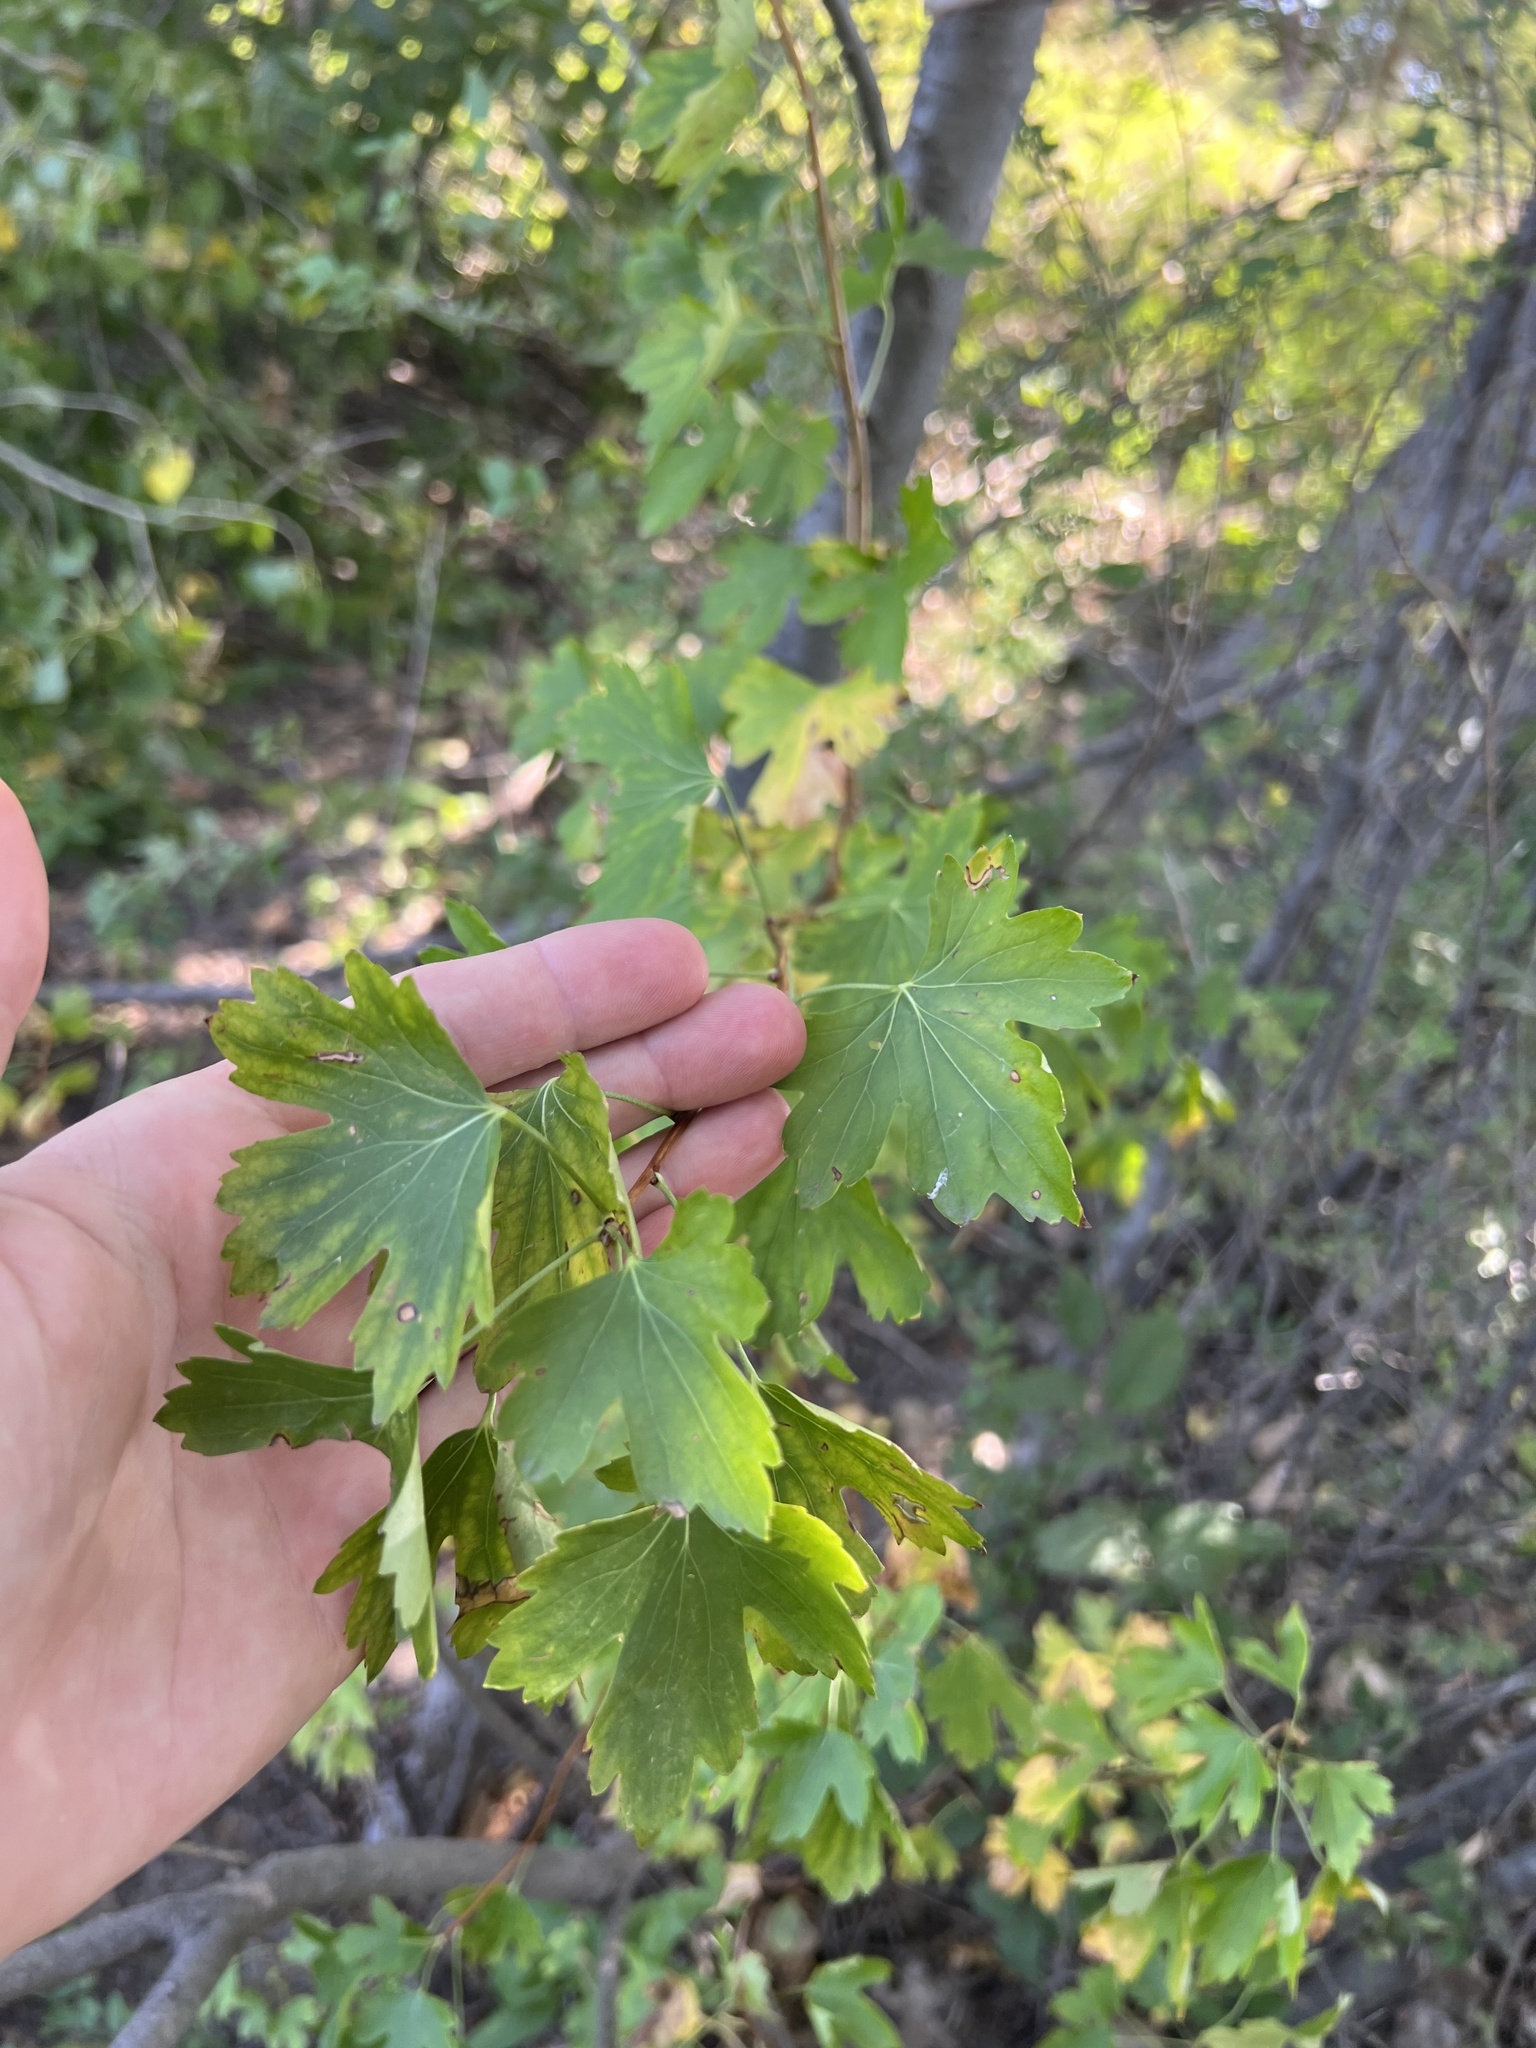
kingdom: Plantae
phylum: Tracheophyta
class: Magnoliopsida
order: Saxifragales
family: Grossulariaceae
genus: Ribes
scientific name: Ribes aureum
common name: Golden currant
